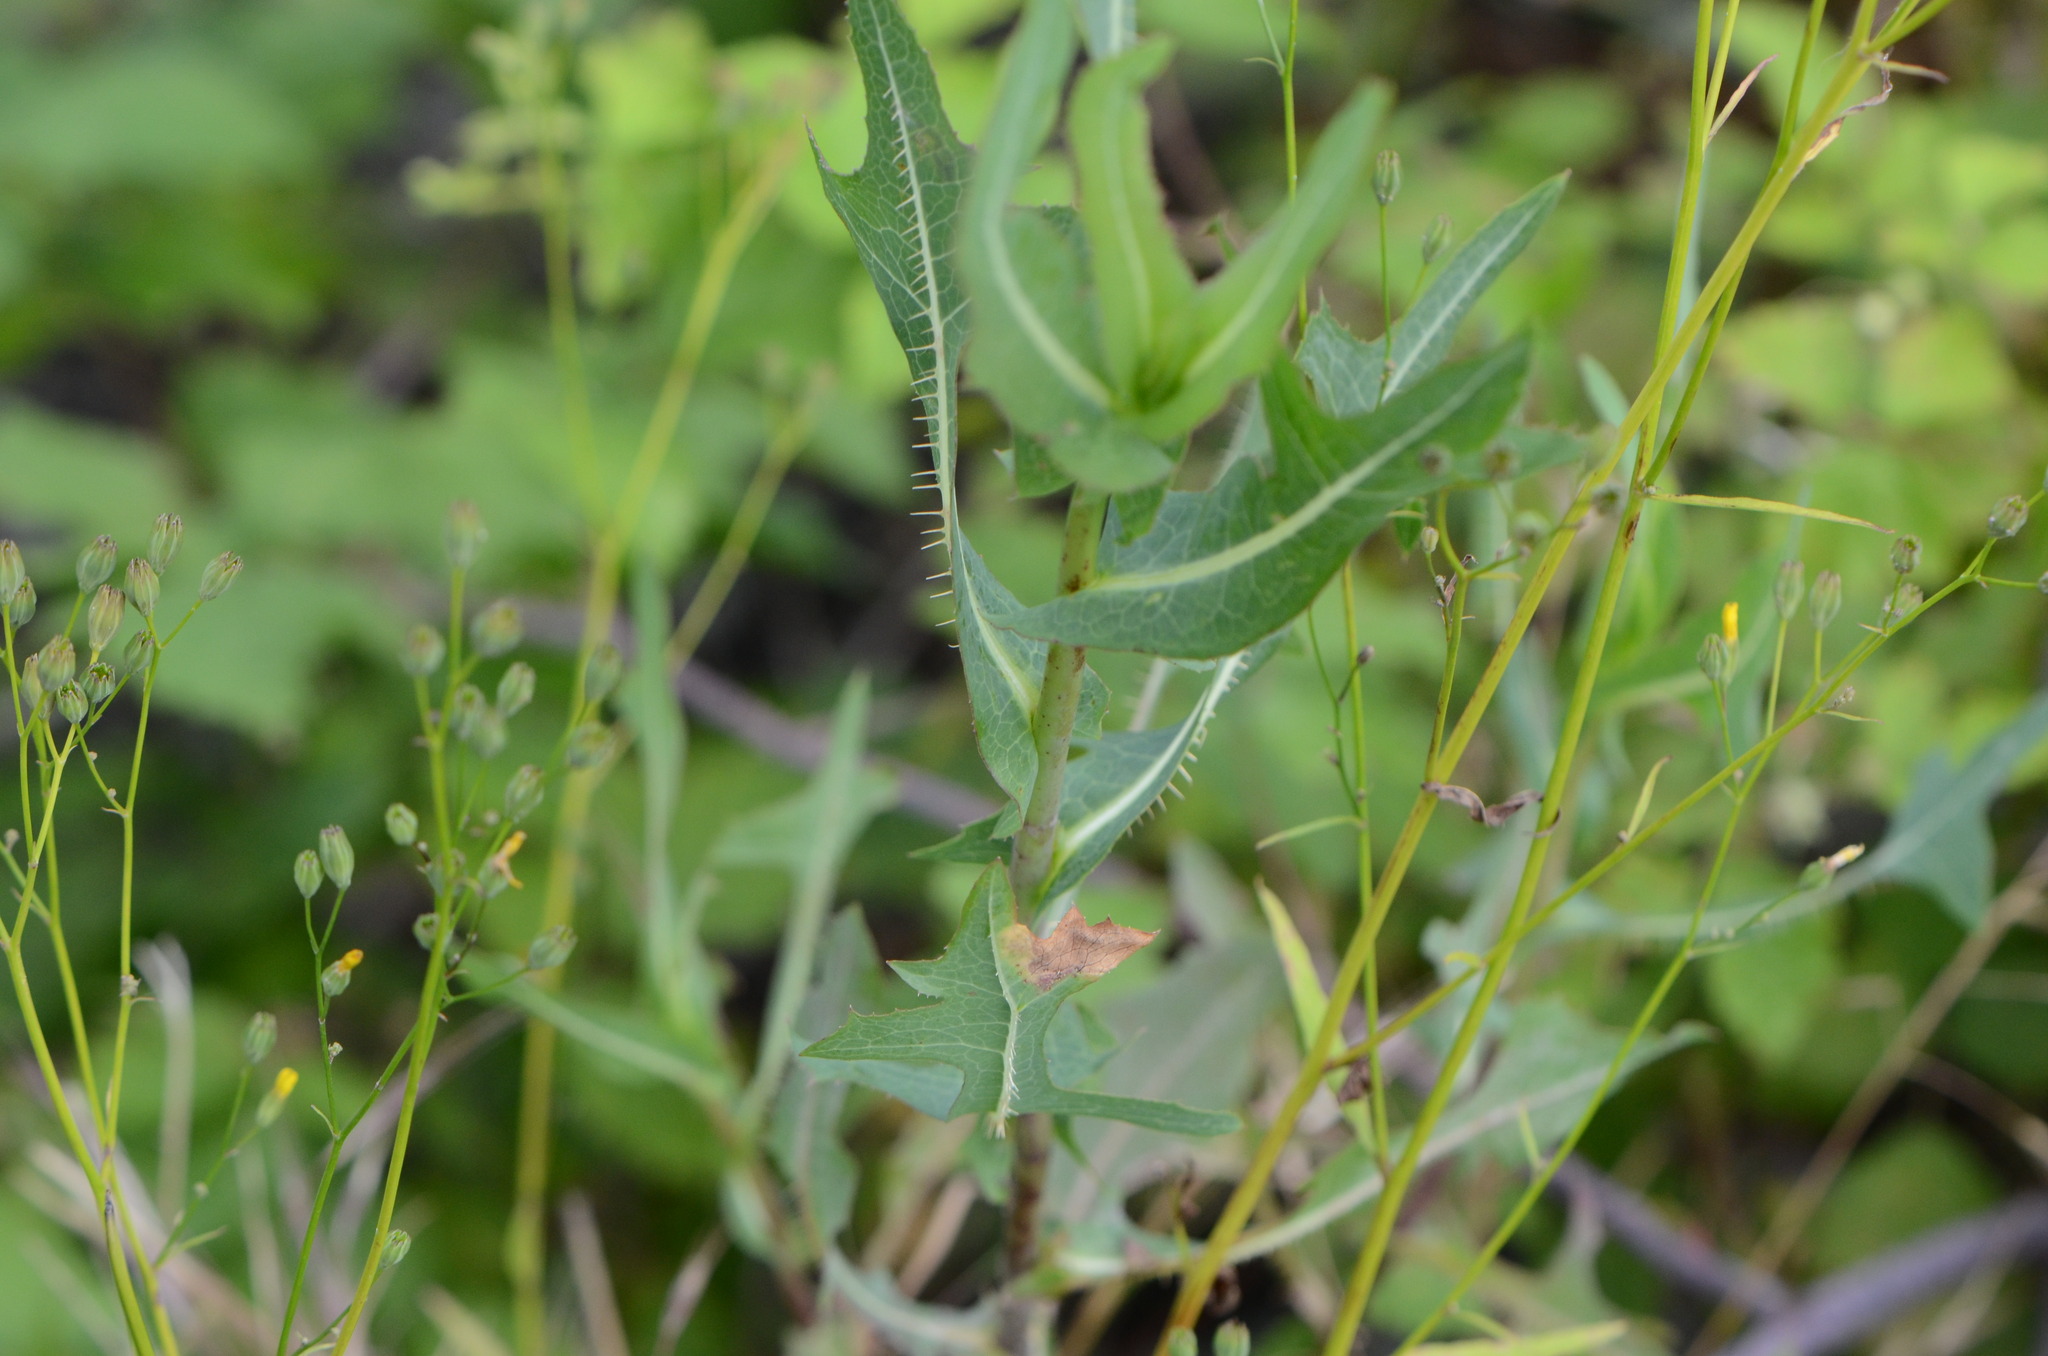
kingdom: Plantae
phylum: Tracheophyta
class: Magnoliopsida
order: Asterales
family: Asteraceae
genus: Lactuca
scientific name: Lactuca serriola
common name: Prickly lettuce
